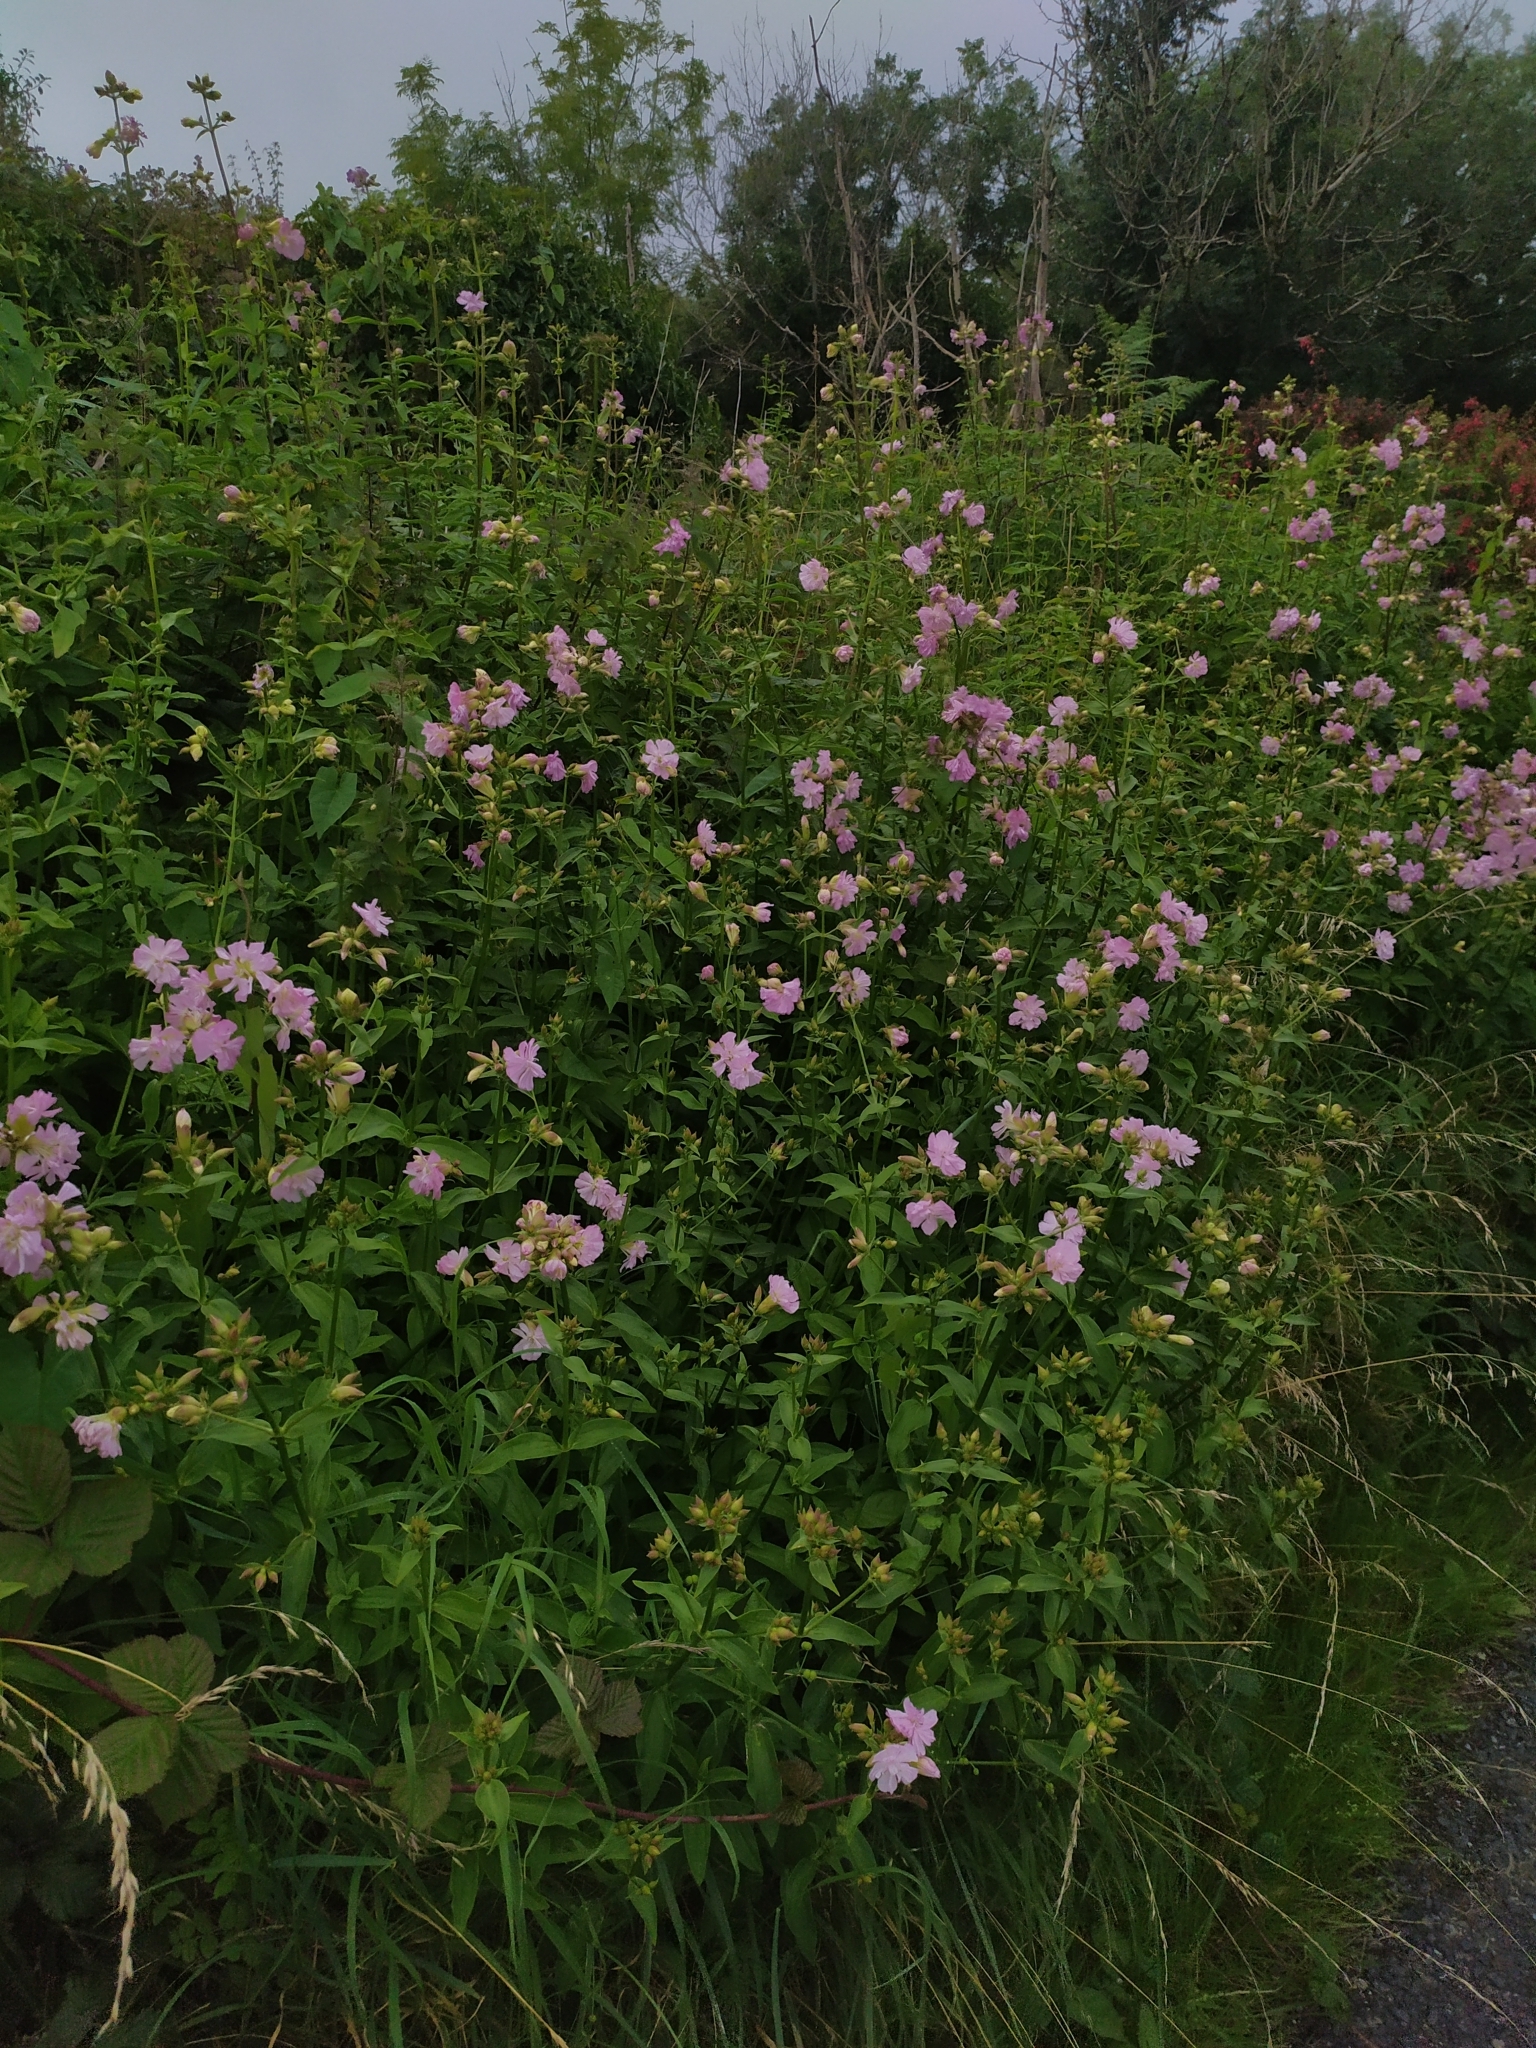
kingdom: Plantae
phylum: Tracheophyta
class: Magnoliopsida
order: Caryophyllales
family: Caryophyllaceae
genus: Saponaria
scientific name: Saponaria officinalis
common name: Soapwort
